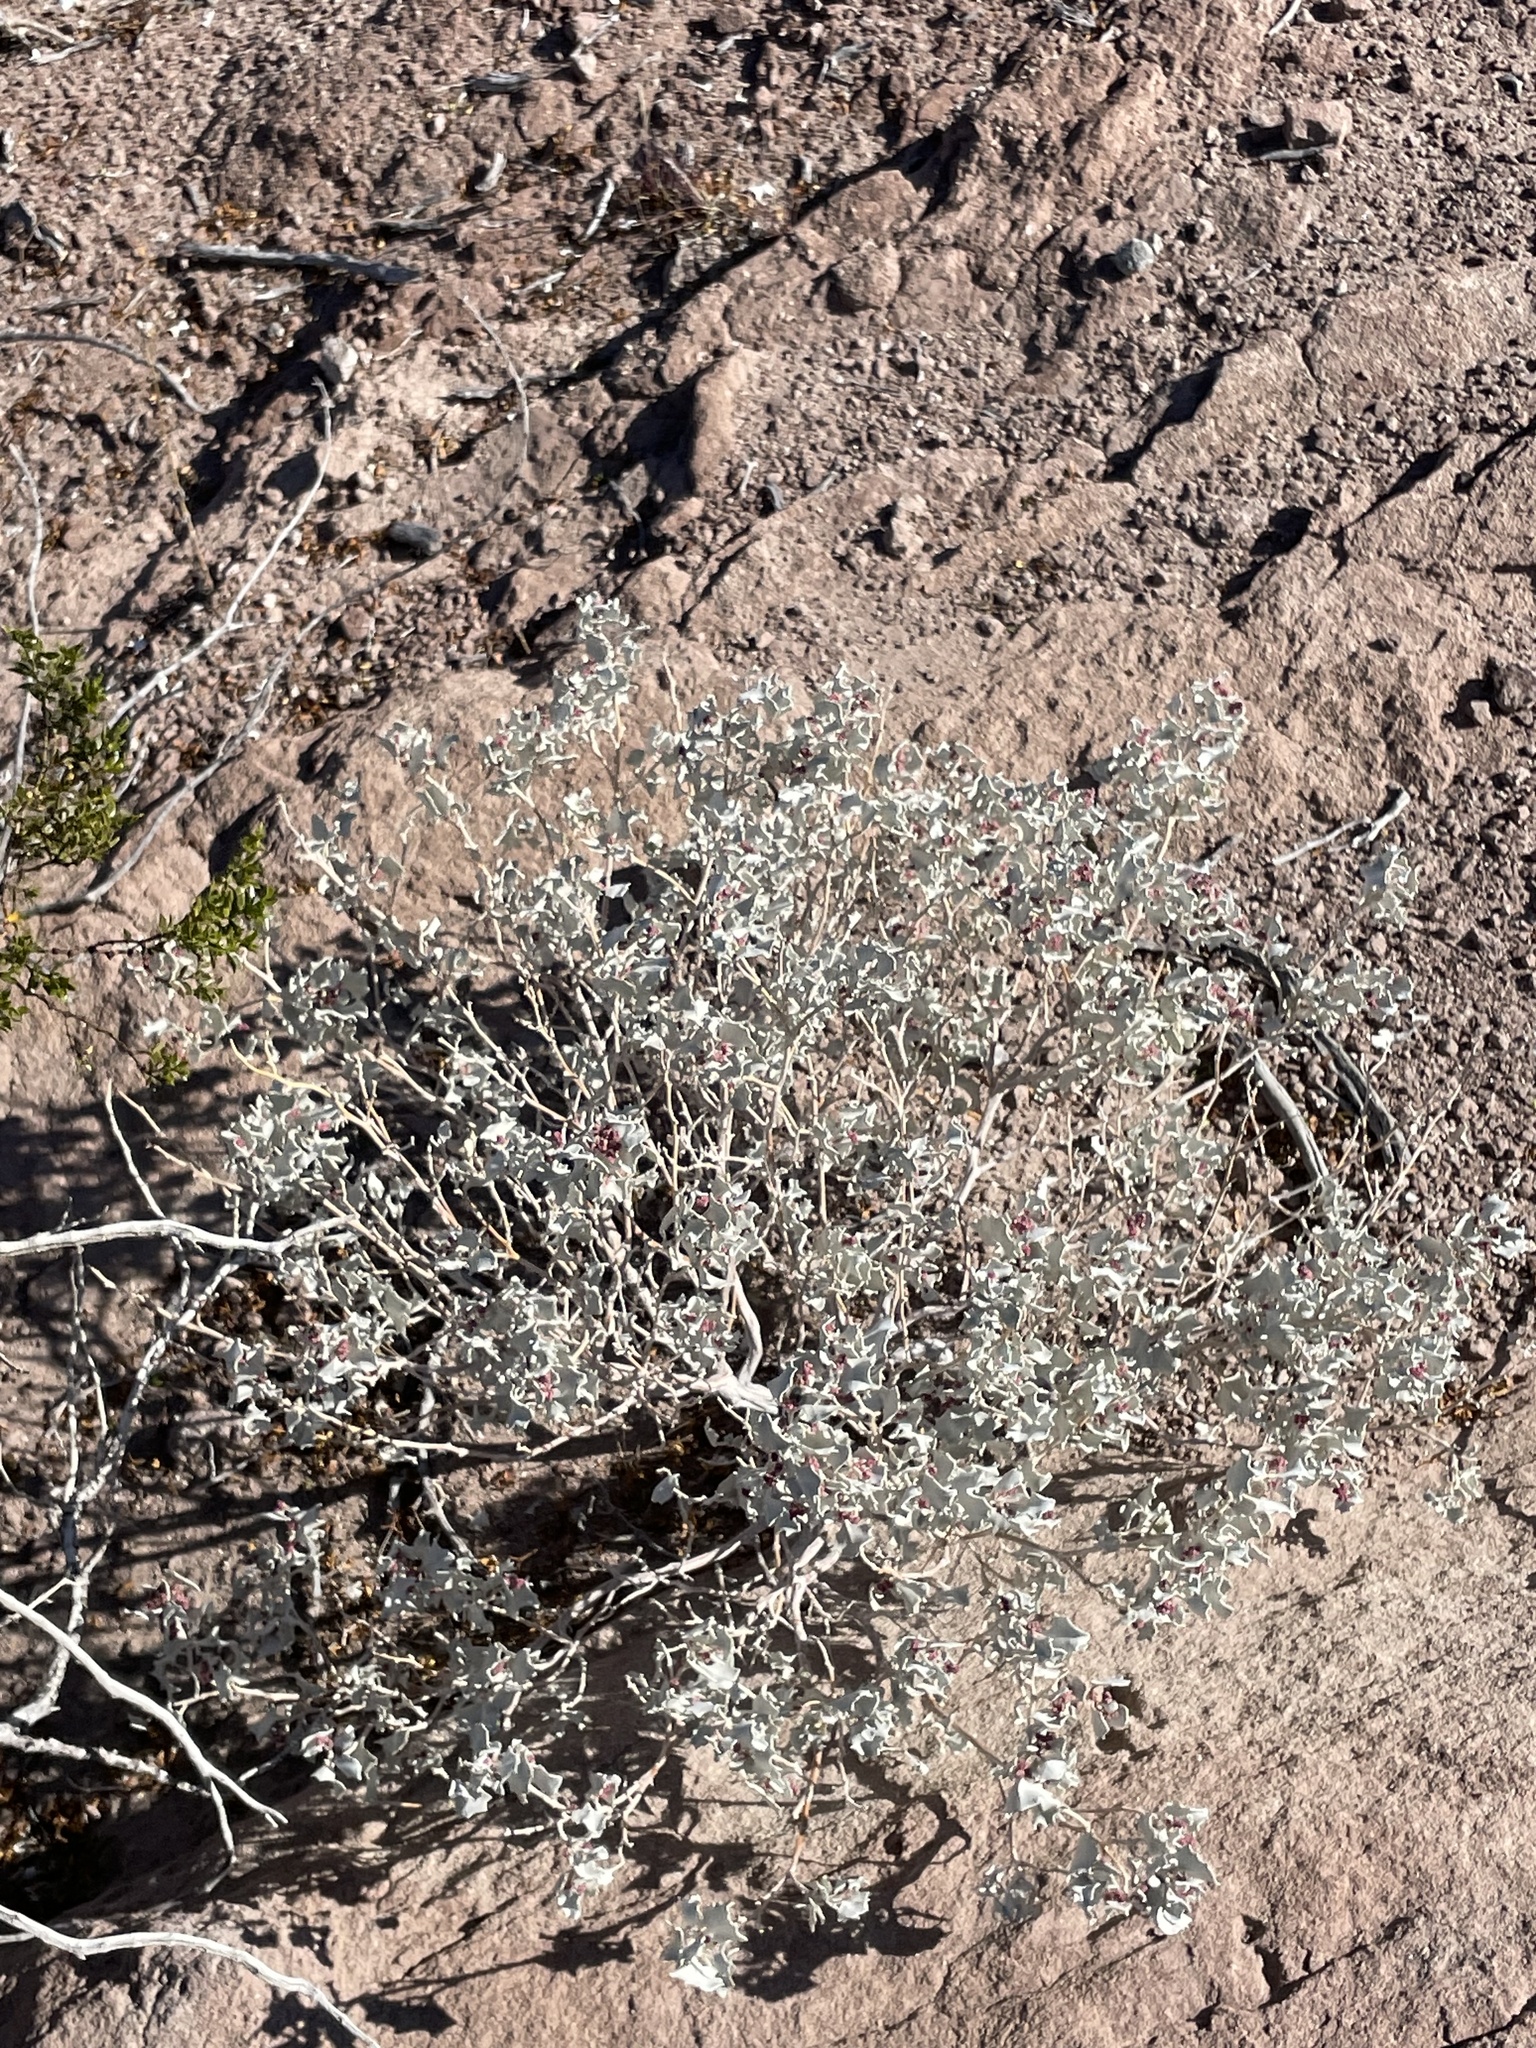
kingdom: Plantae
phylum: Tracheophyta
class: Magnoliopsida
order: Caryophyllales
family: Amaranthaceae
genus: Atriplex
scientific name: Atriplex hymenelytra
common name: Desert-holly
